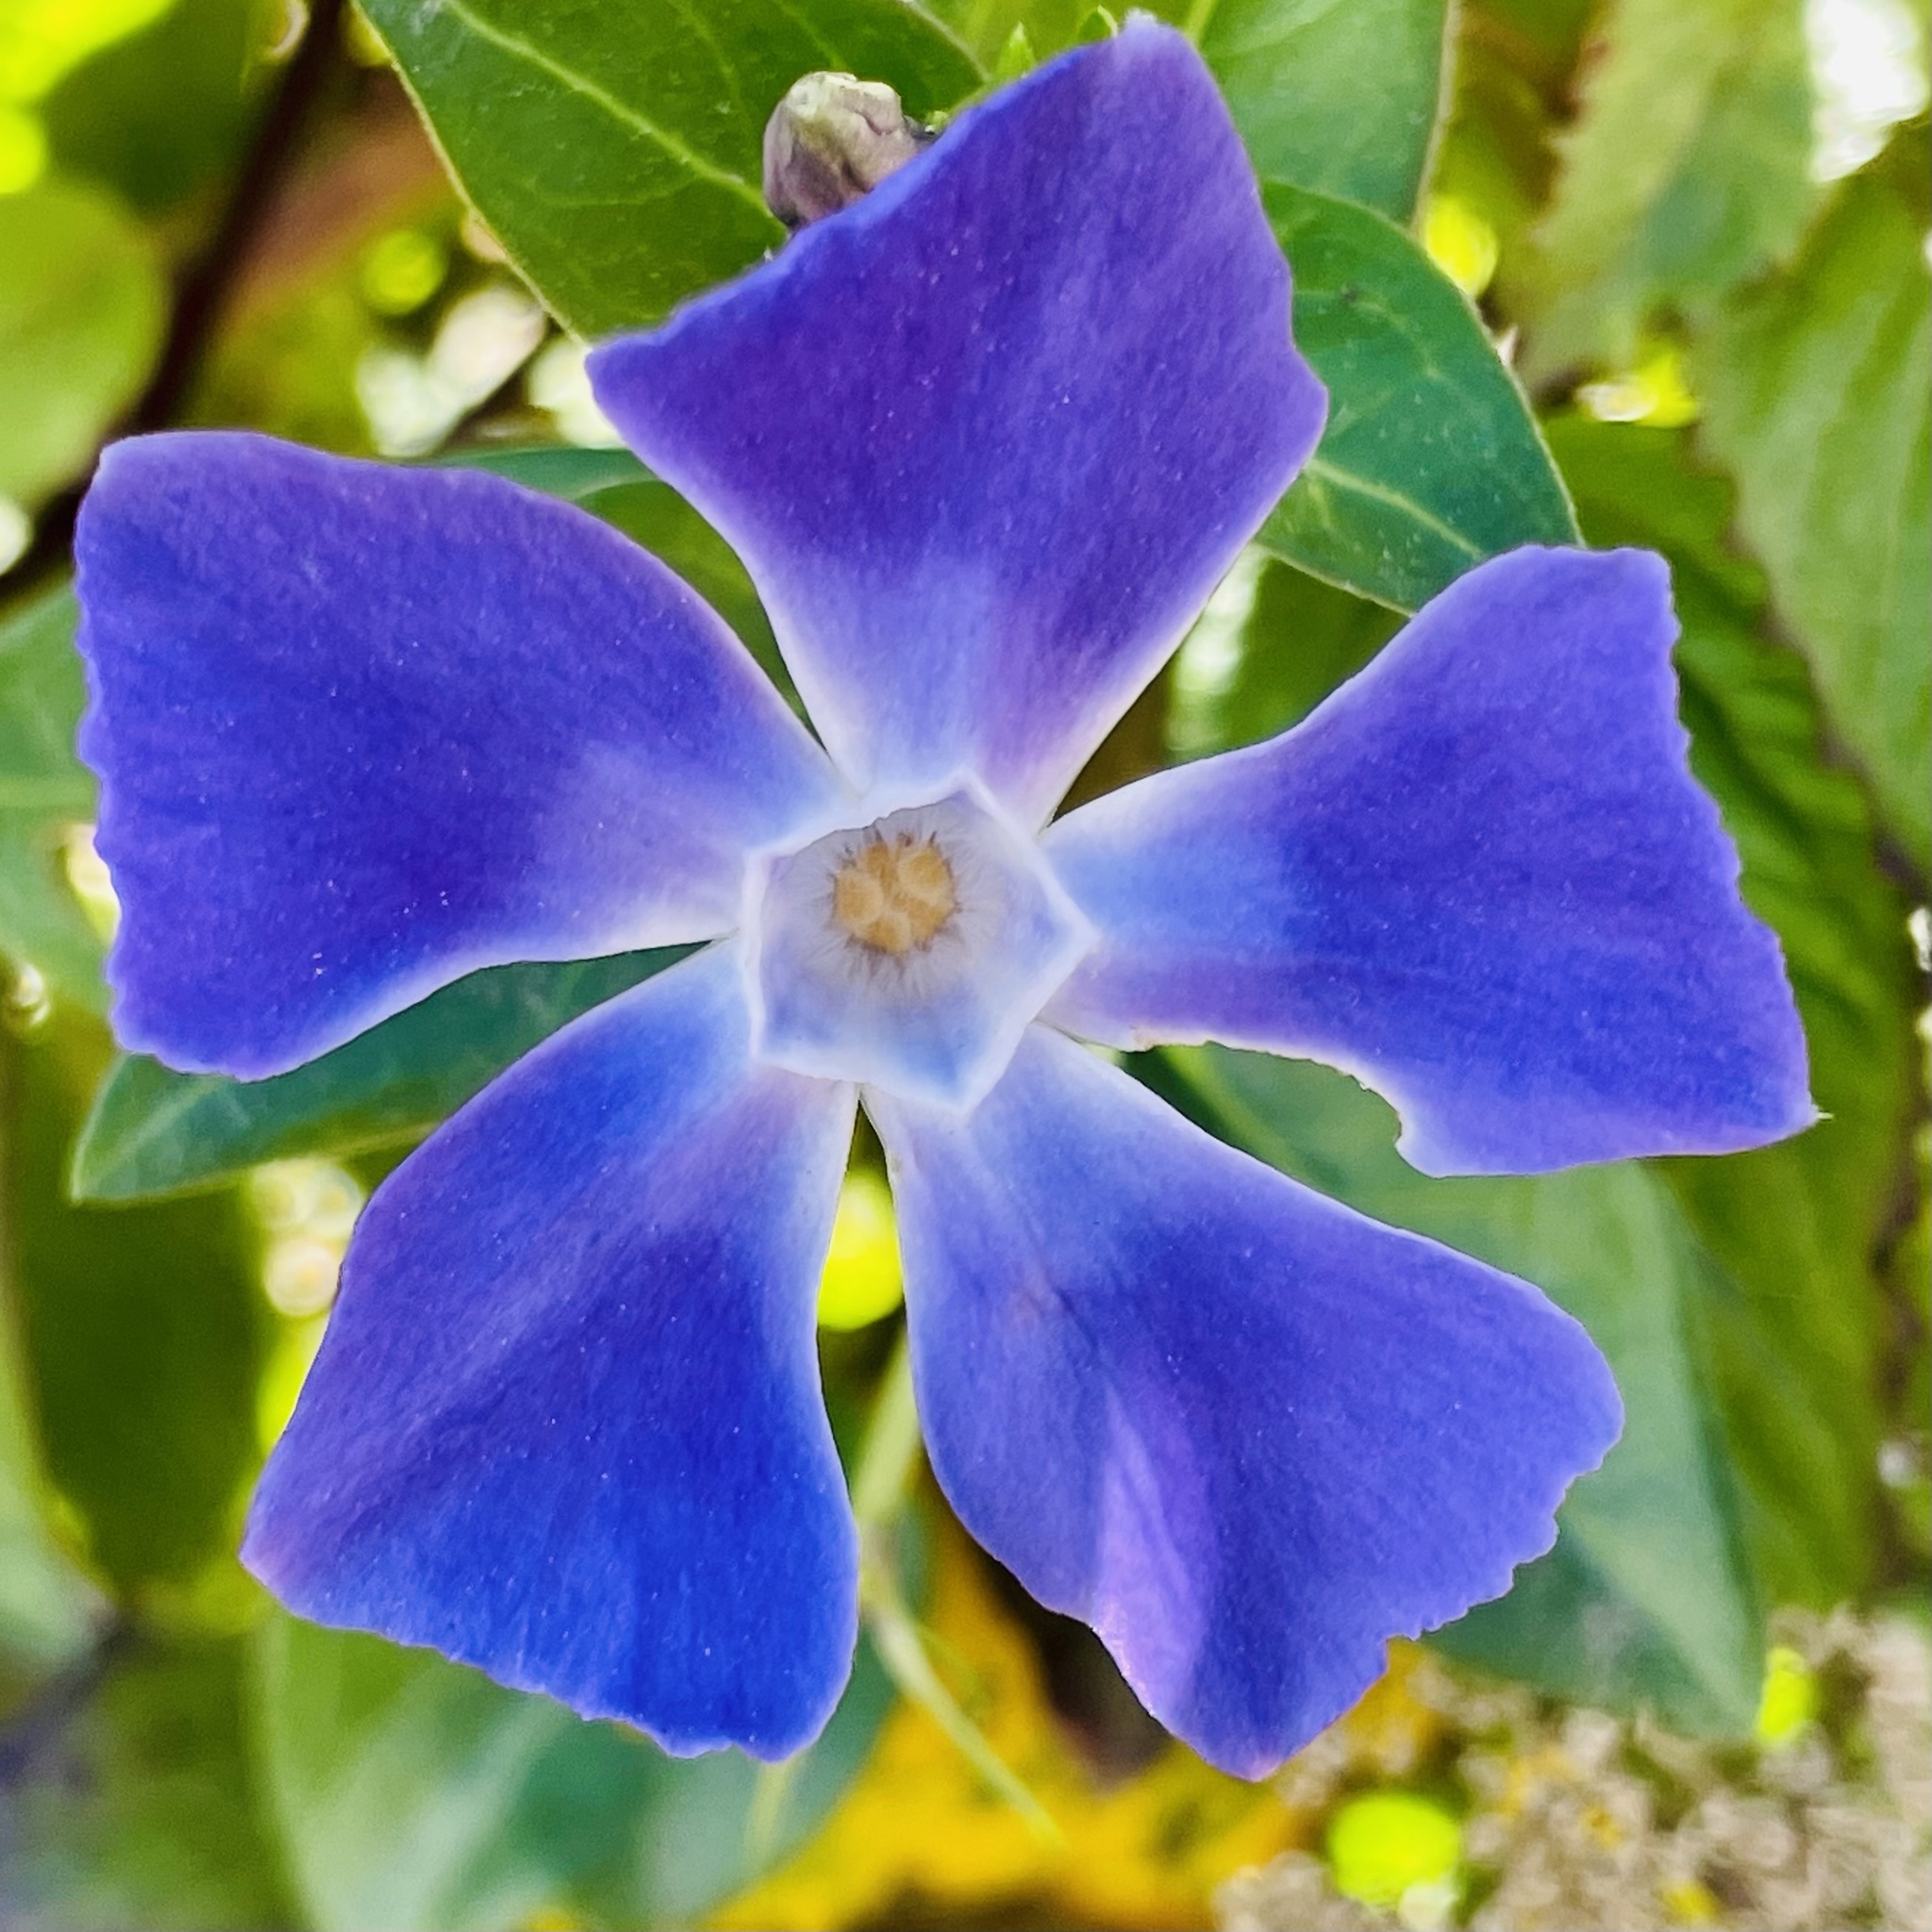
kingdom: Plantae
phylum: Tracheophyta
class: Magnoliopsida
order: Gentianales
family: Apocynaceae
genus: Vinca
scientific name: Vinca major
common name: Greater periwinkle
